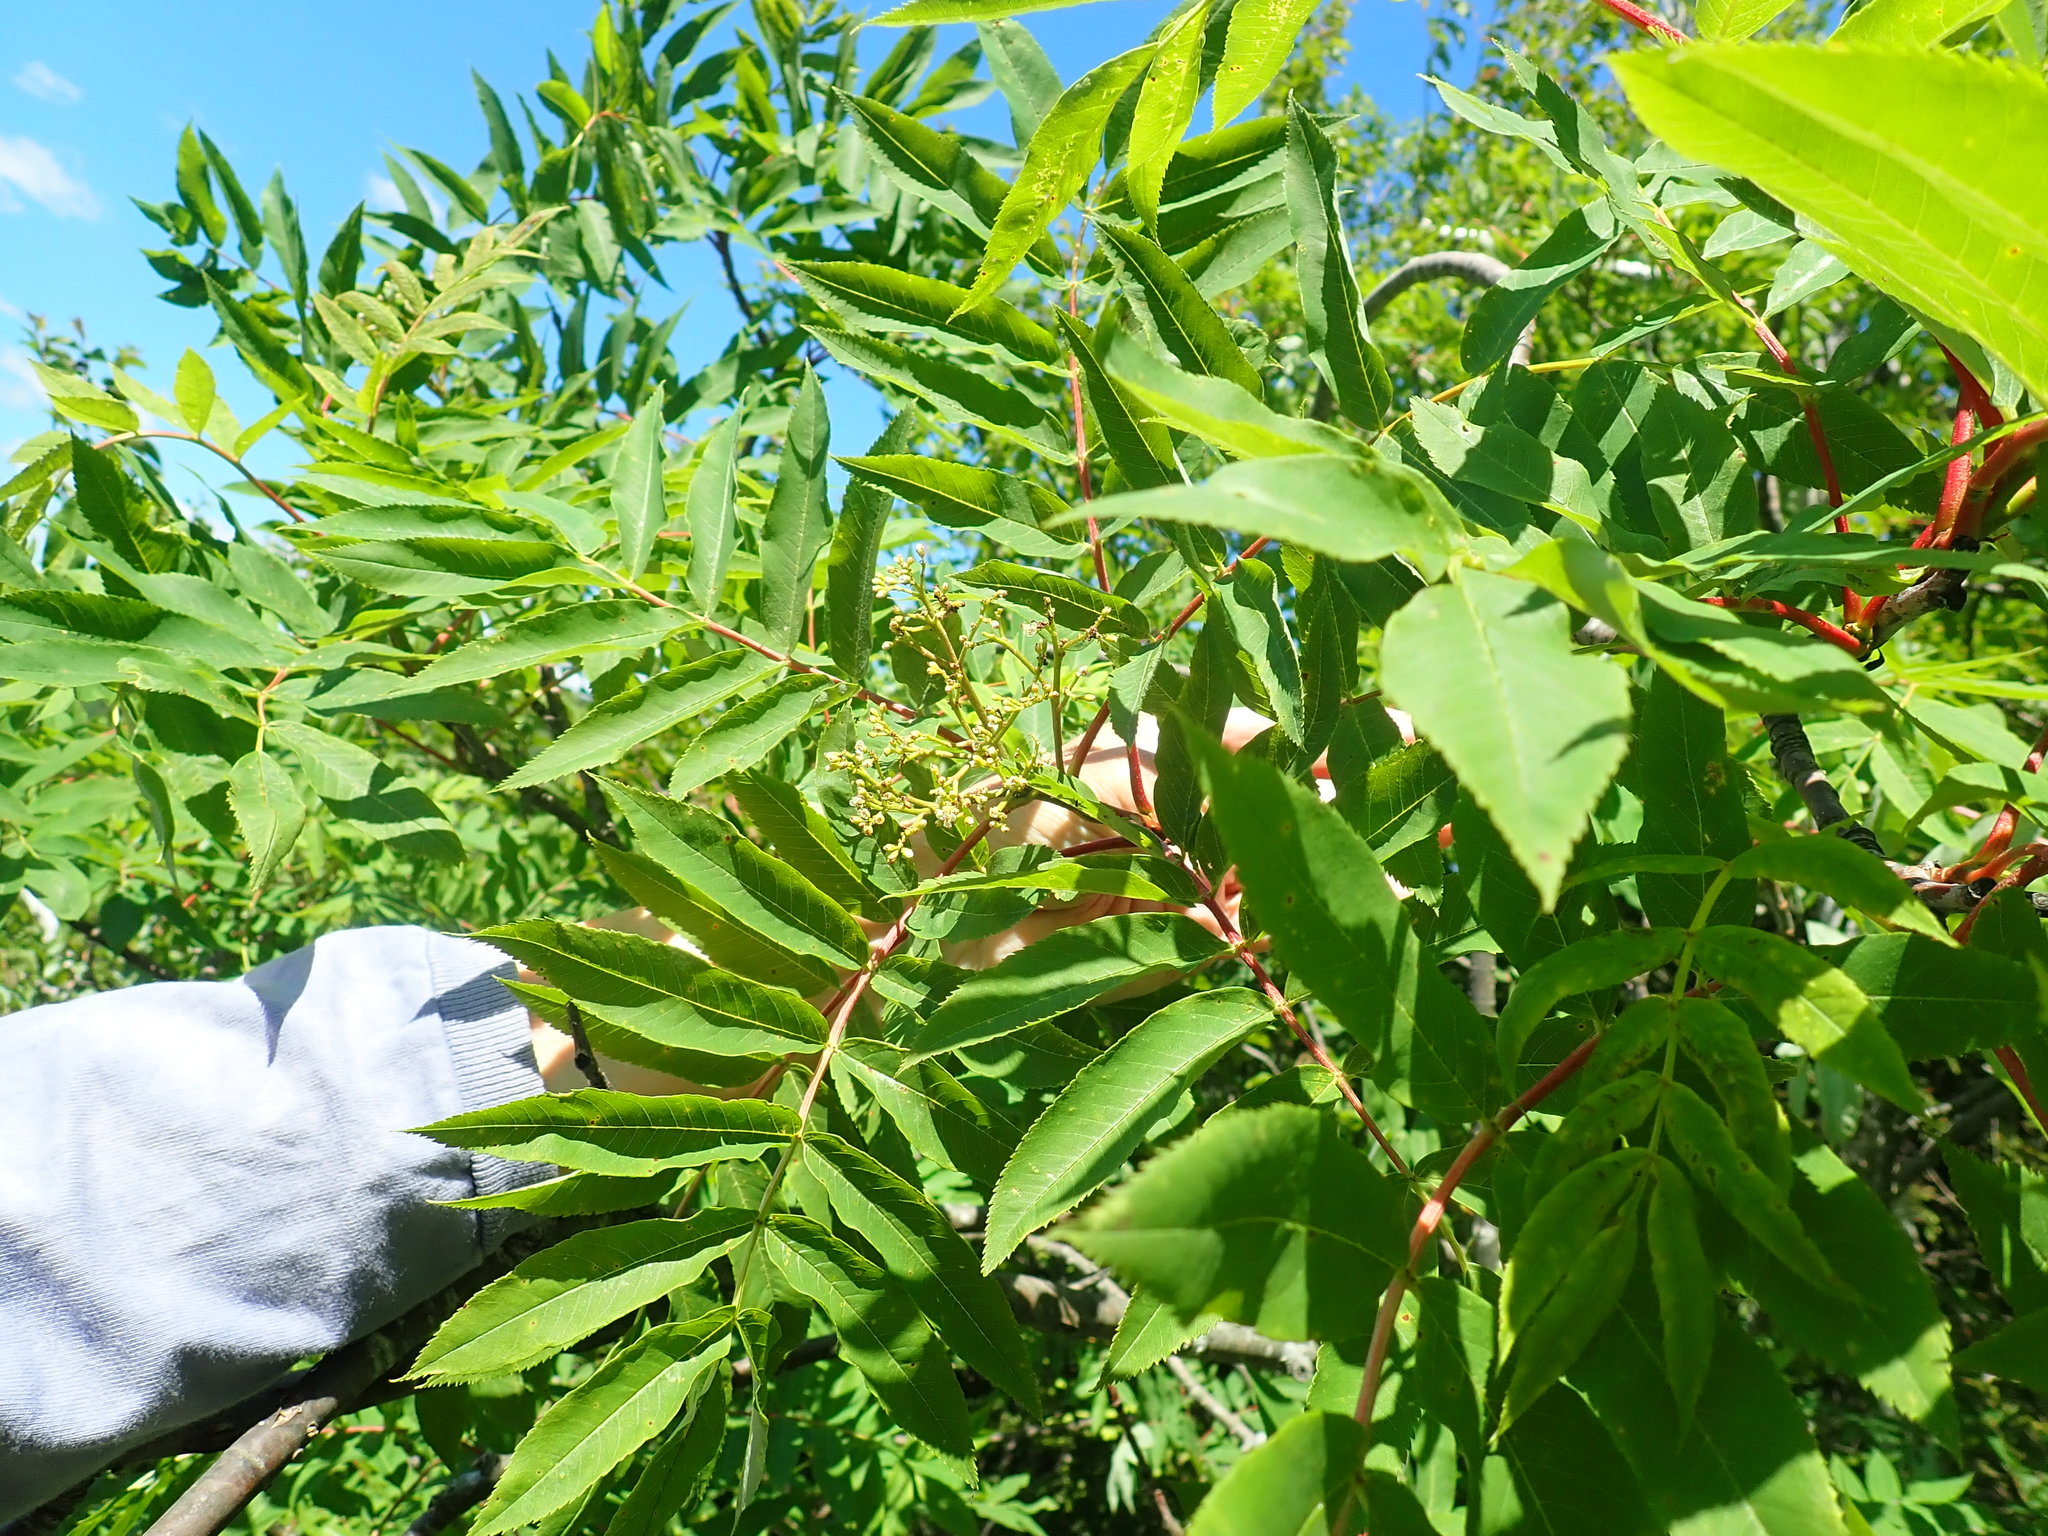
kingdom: Plantae
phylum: Tracheophyta
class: Magnoliopsida
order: Rosales
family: Rosaceae
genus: Sorbus
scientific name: Sorbus americana
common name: American mountain-ash
